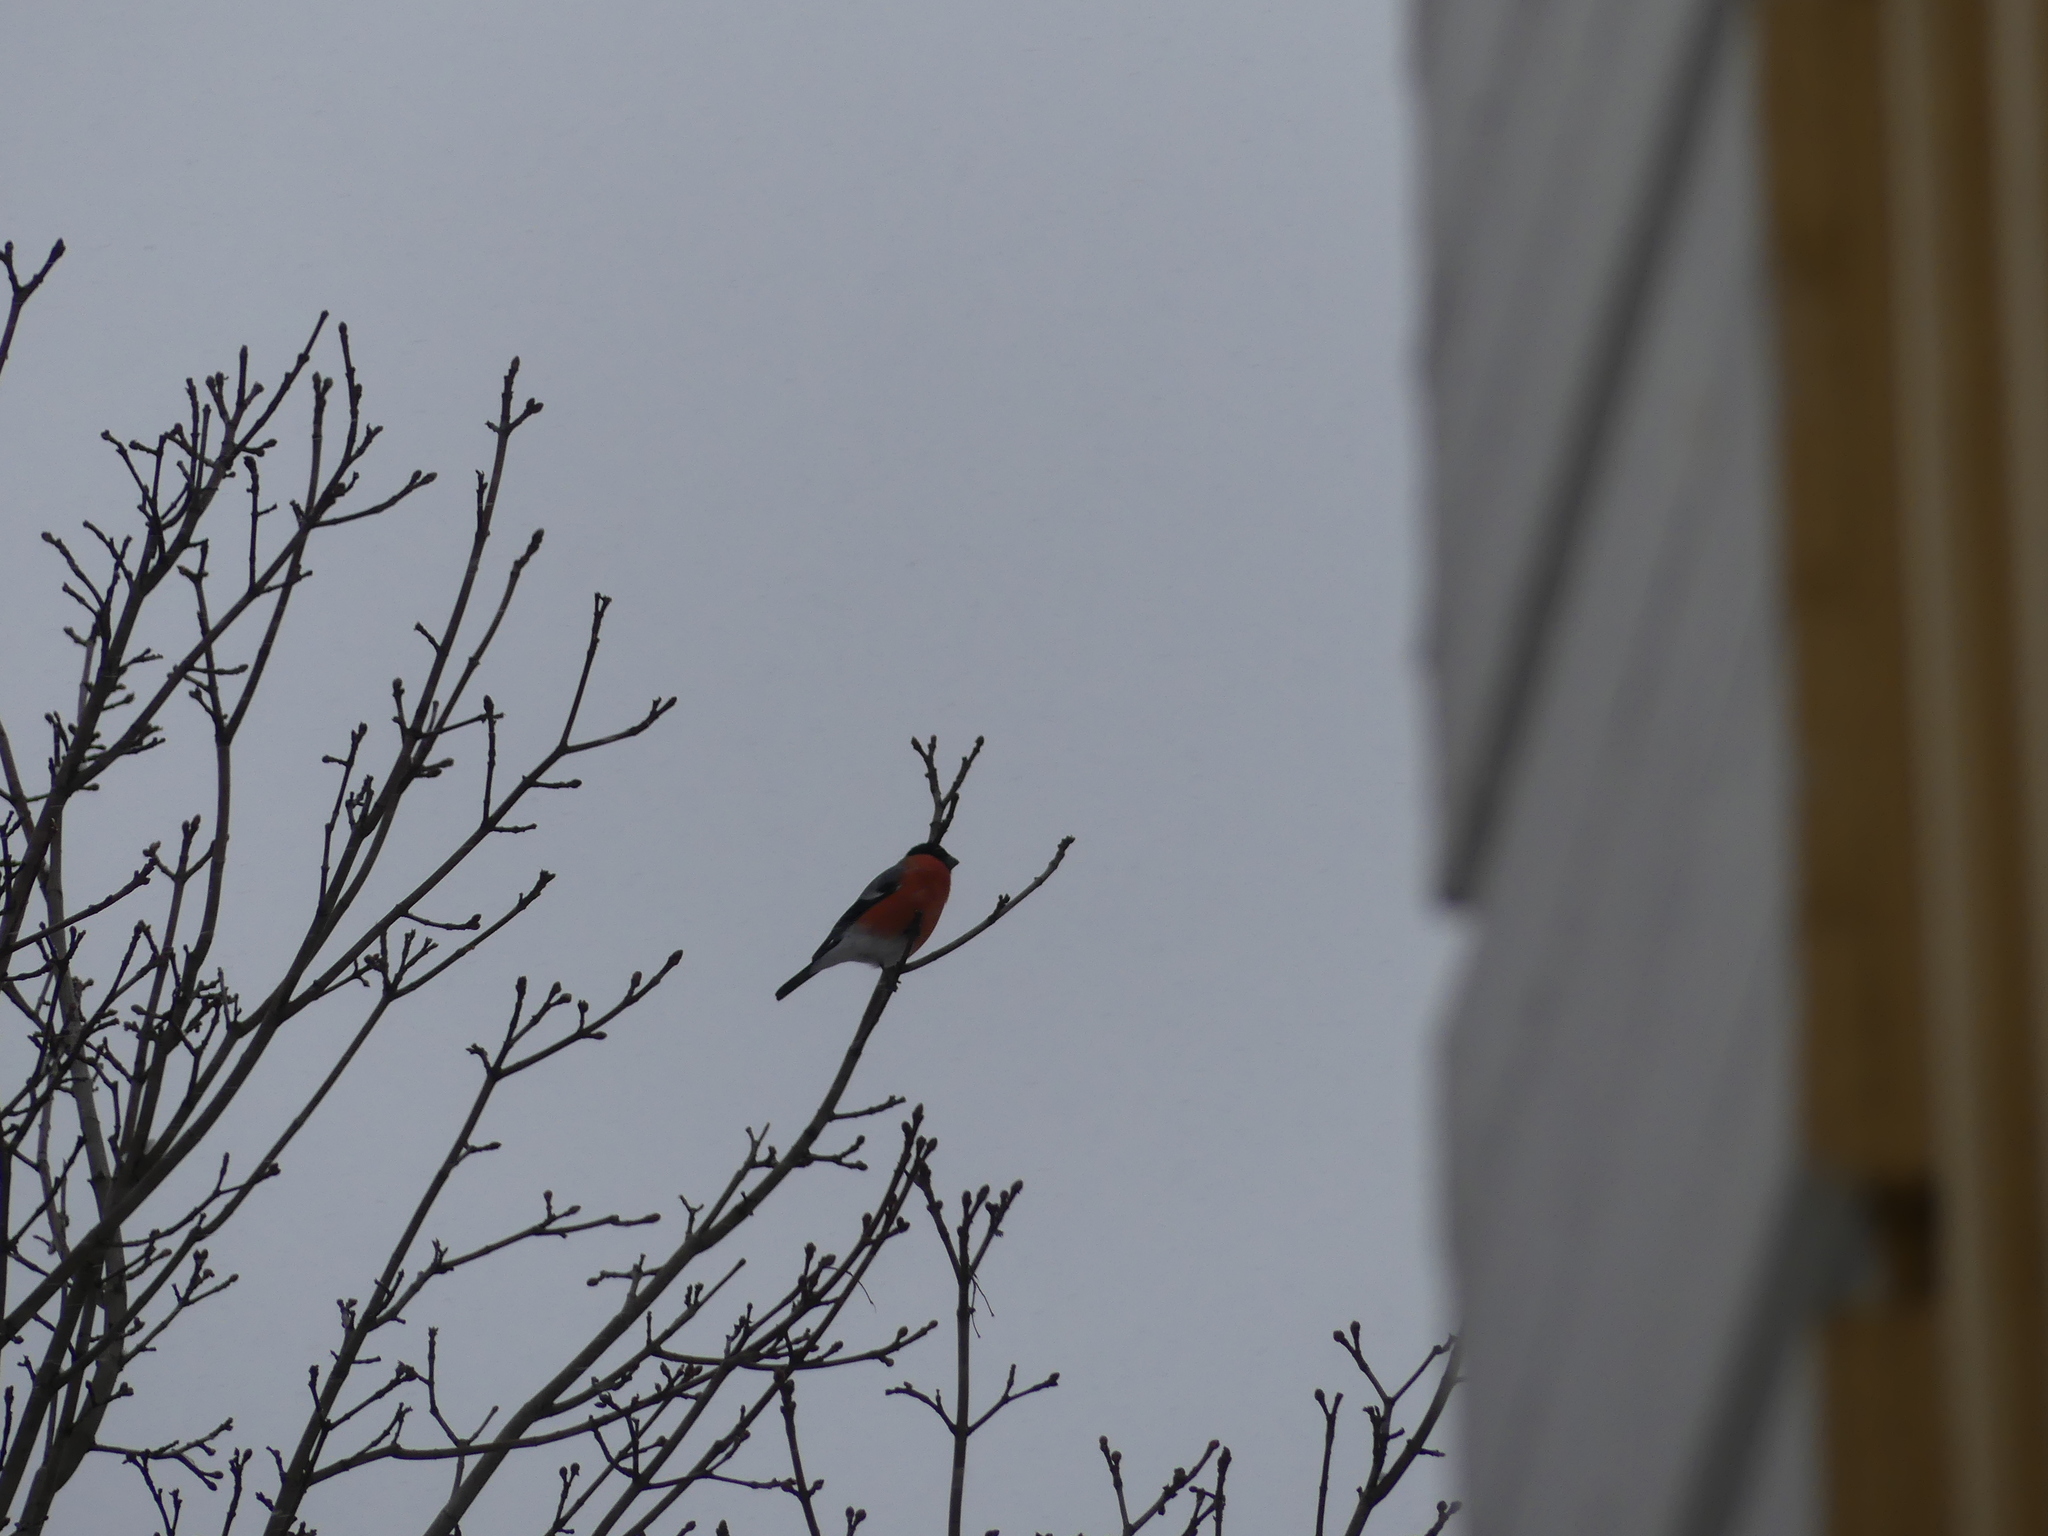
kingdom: Animalia
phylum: Chordata
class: Aves
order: Passeriformes
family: Fringillidae
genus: Pyrrhula
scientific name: Pyrrhula pyrrhula
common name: Eurasian bullfinch
